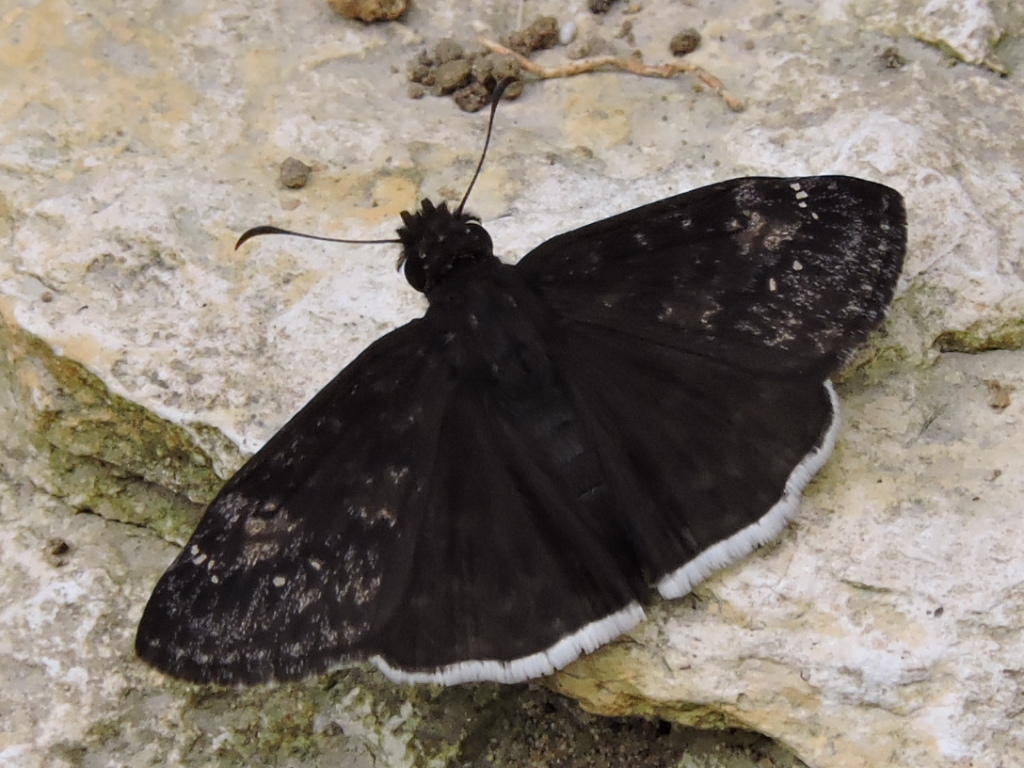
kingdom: Animalia
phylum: Arthropoda
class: Insecta
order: Lepidoptera
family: Hesperiidae
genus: Erynnis
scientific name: Erynnis funeralis
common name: Funereal duskywing
